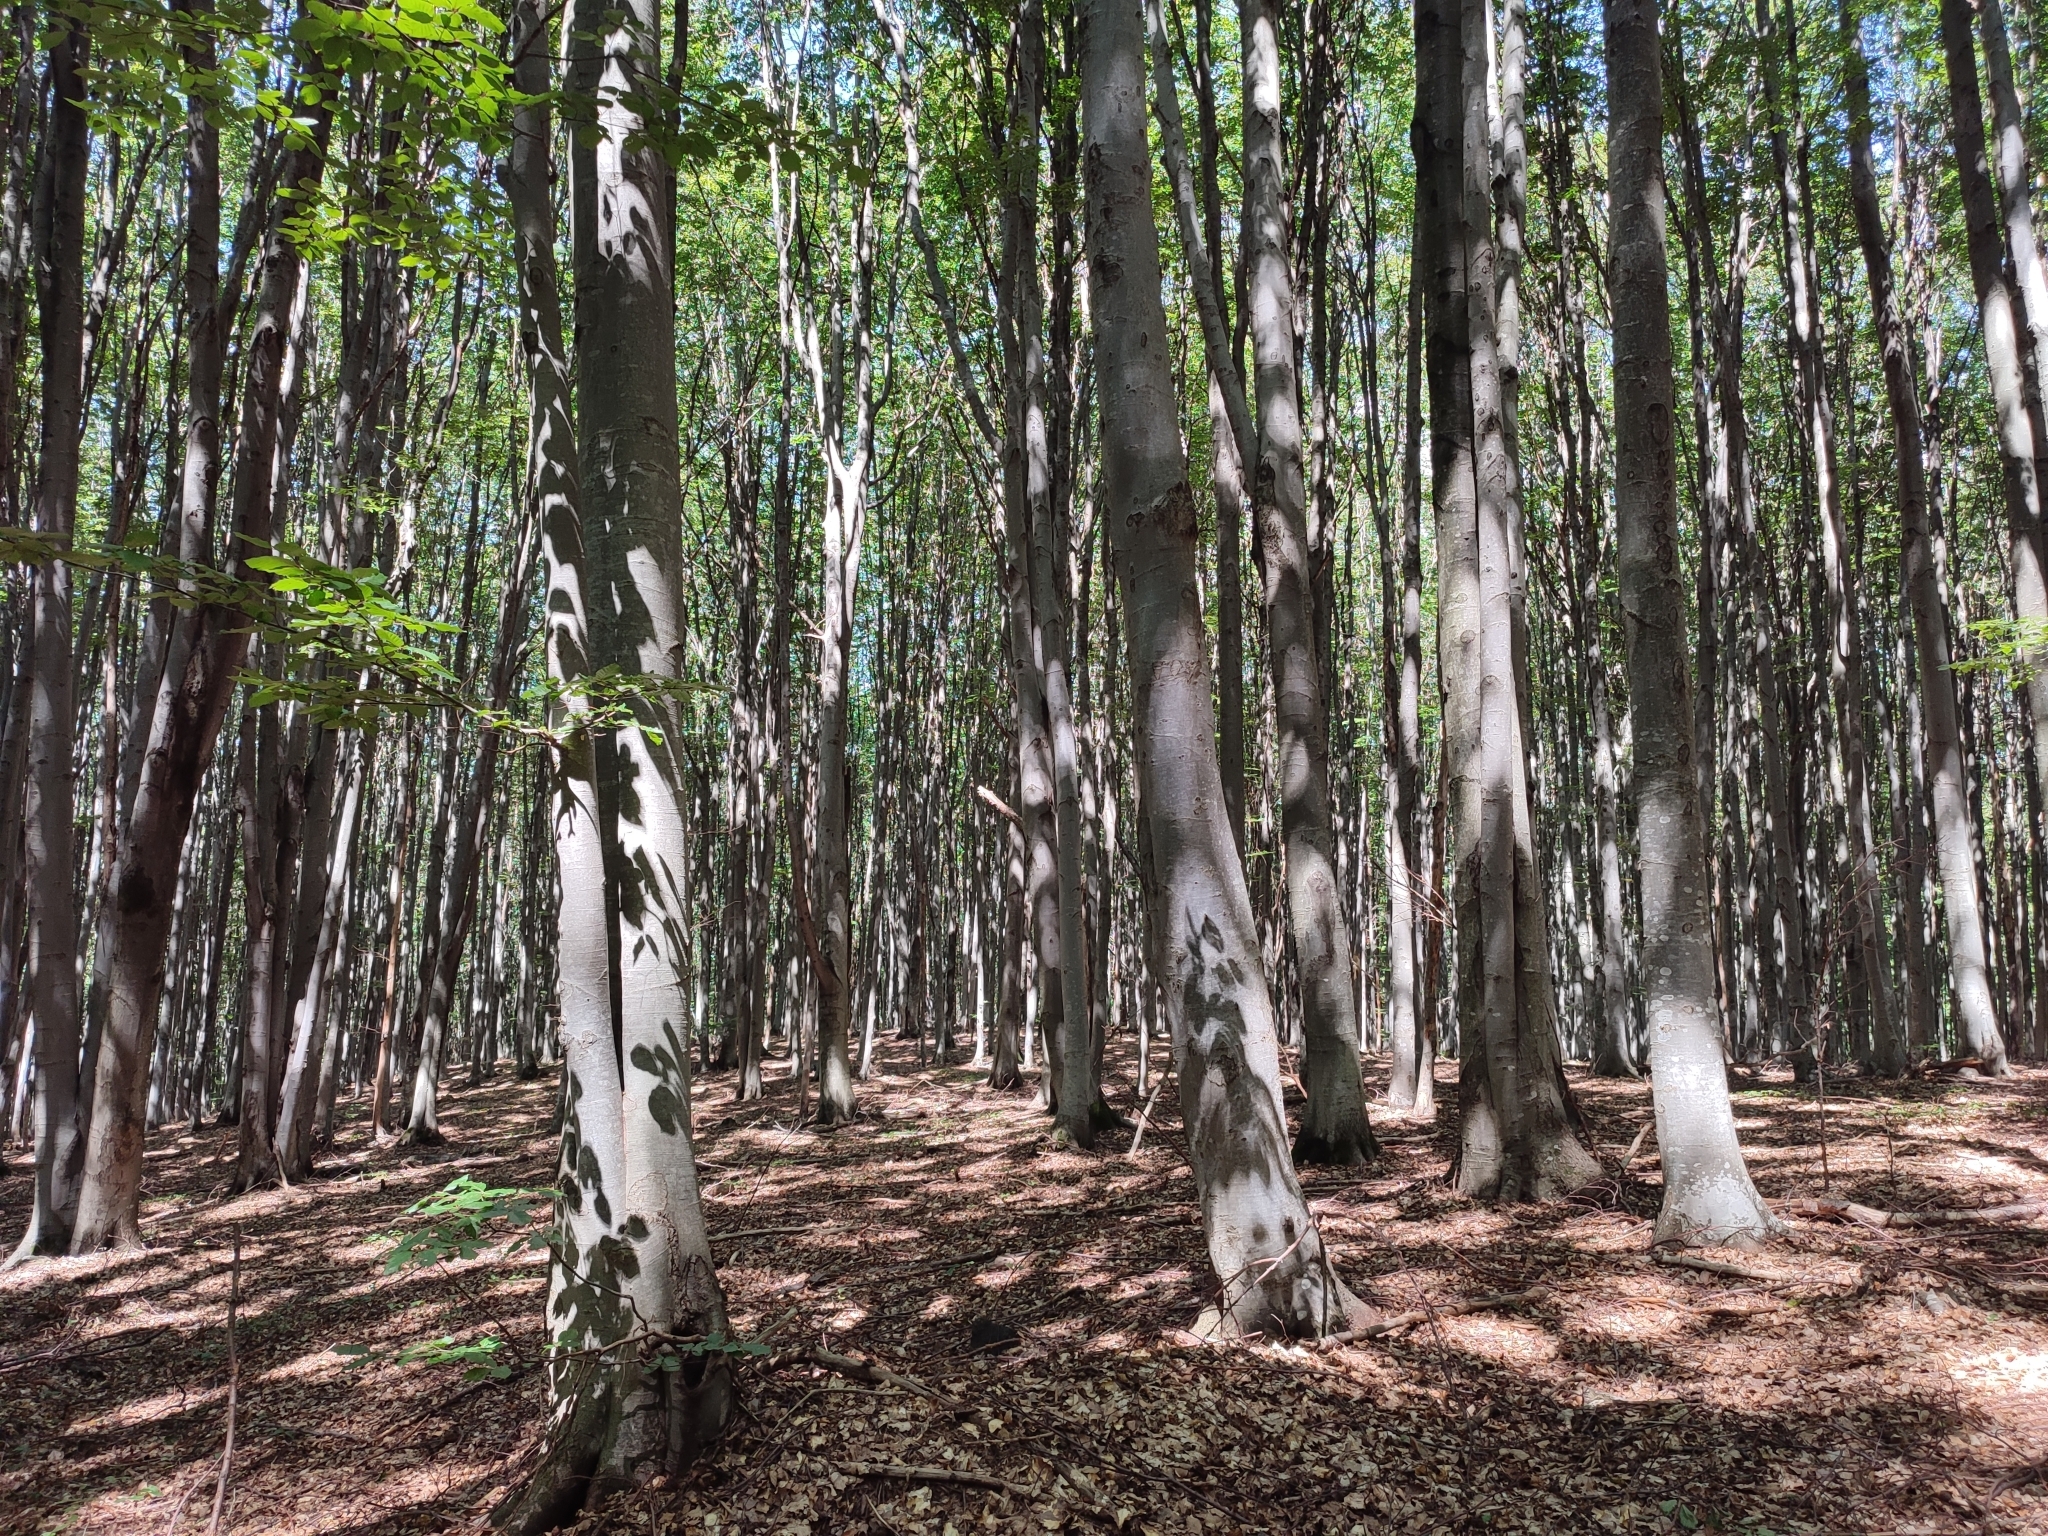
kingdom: Plantae
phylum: Tracheophyta
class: Magnoliopsida
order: Fagales
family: Fagaceae
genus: Fagus
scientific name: Fagus sylvatica
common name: Beech
